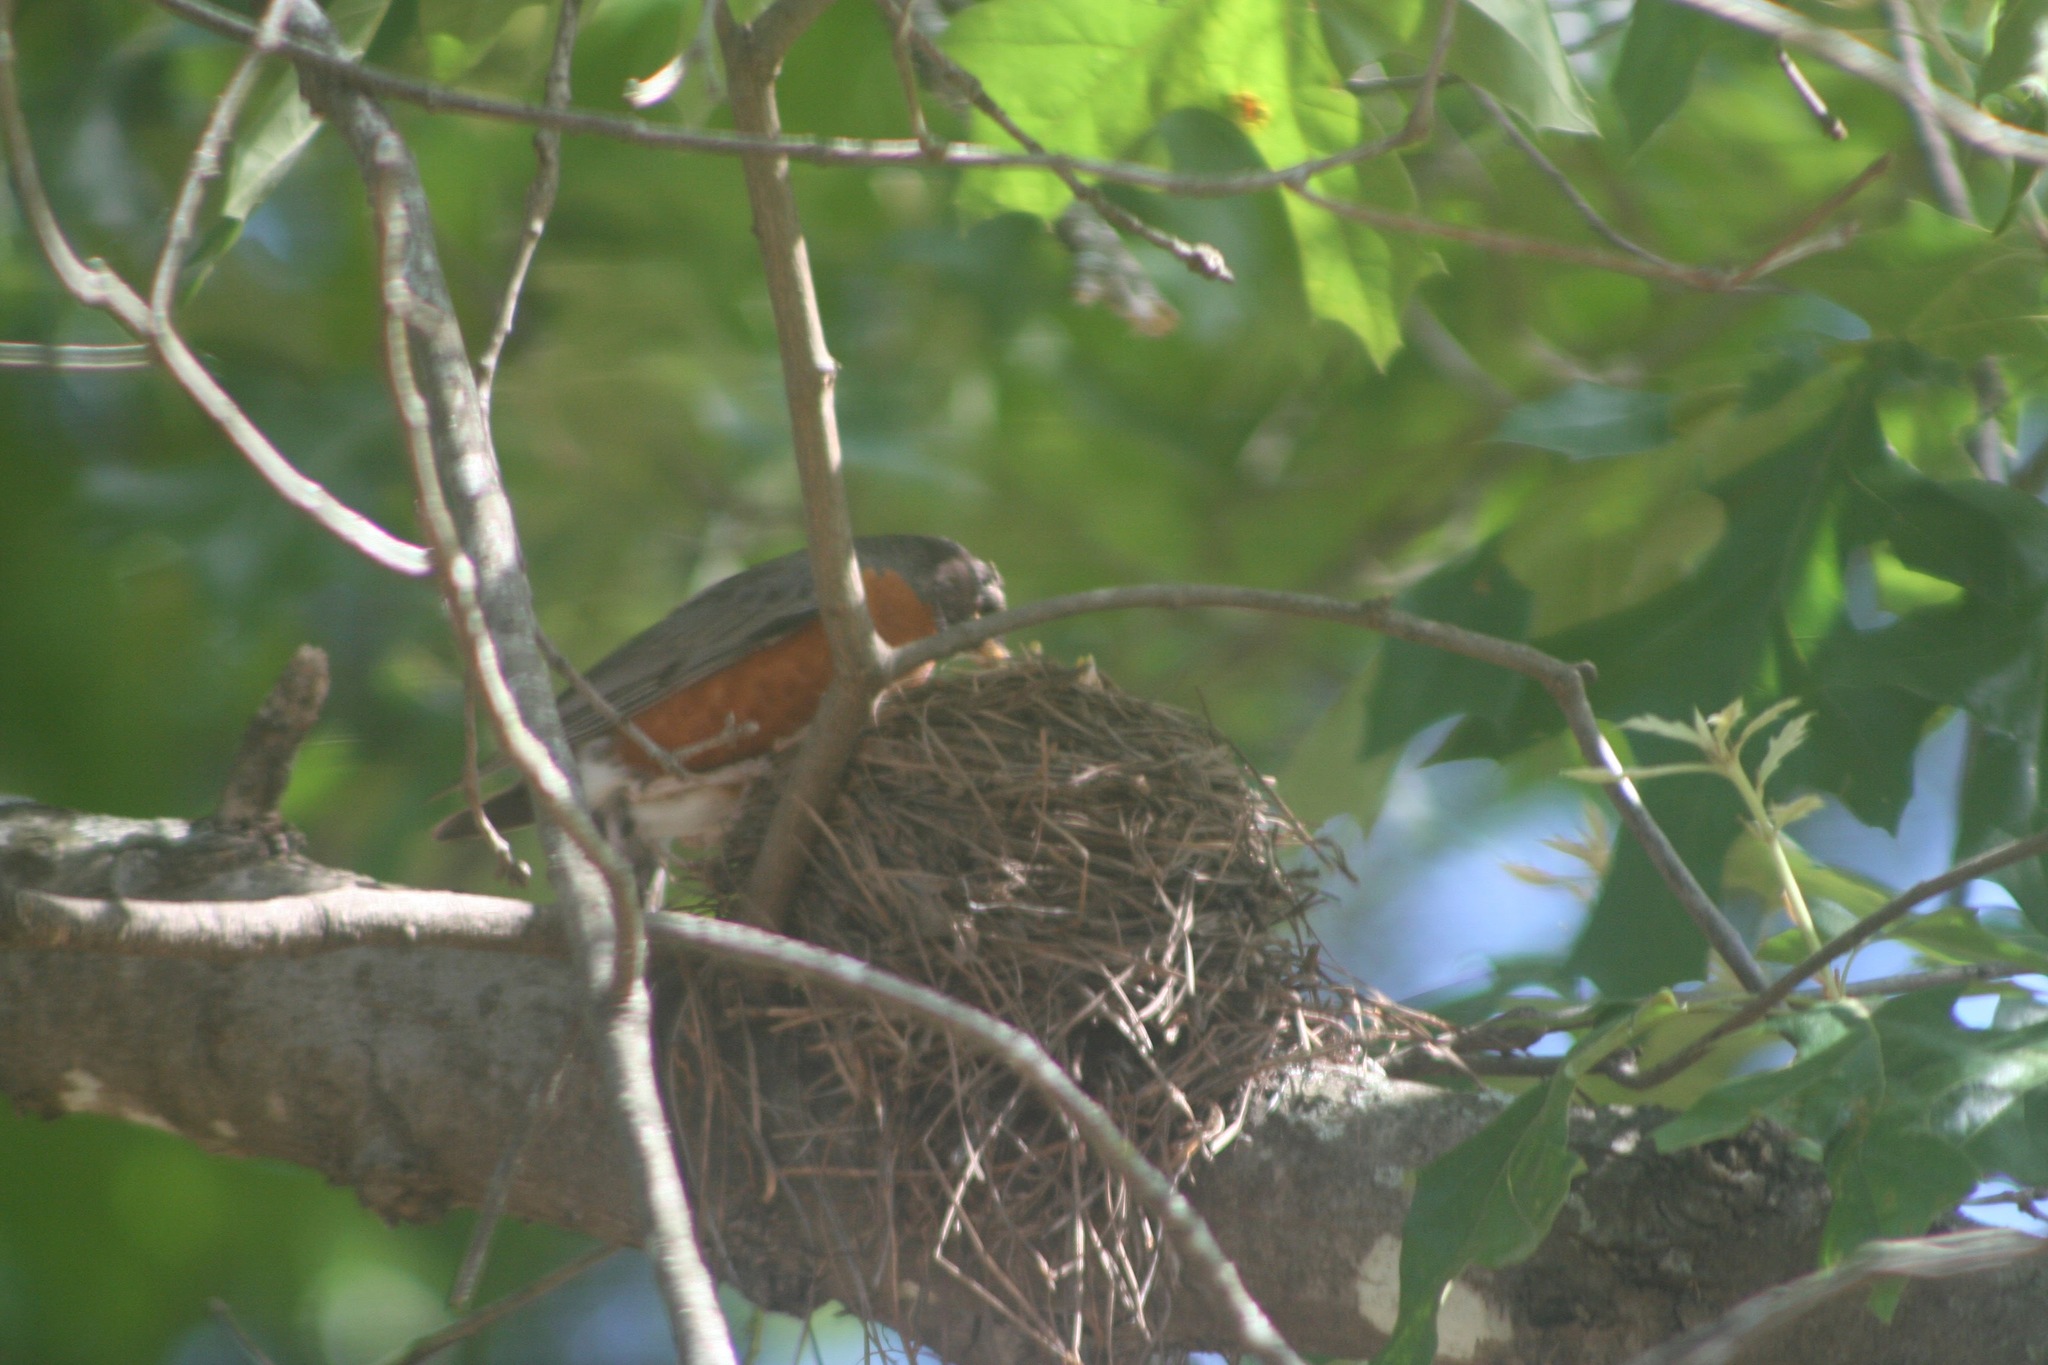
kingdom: Animalia
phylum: Chordata
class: Aves
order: Passeriformes
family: Turdidae
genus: Turdus
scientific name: Turdus migratorius
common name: American robin
